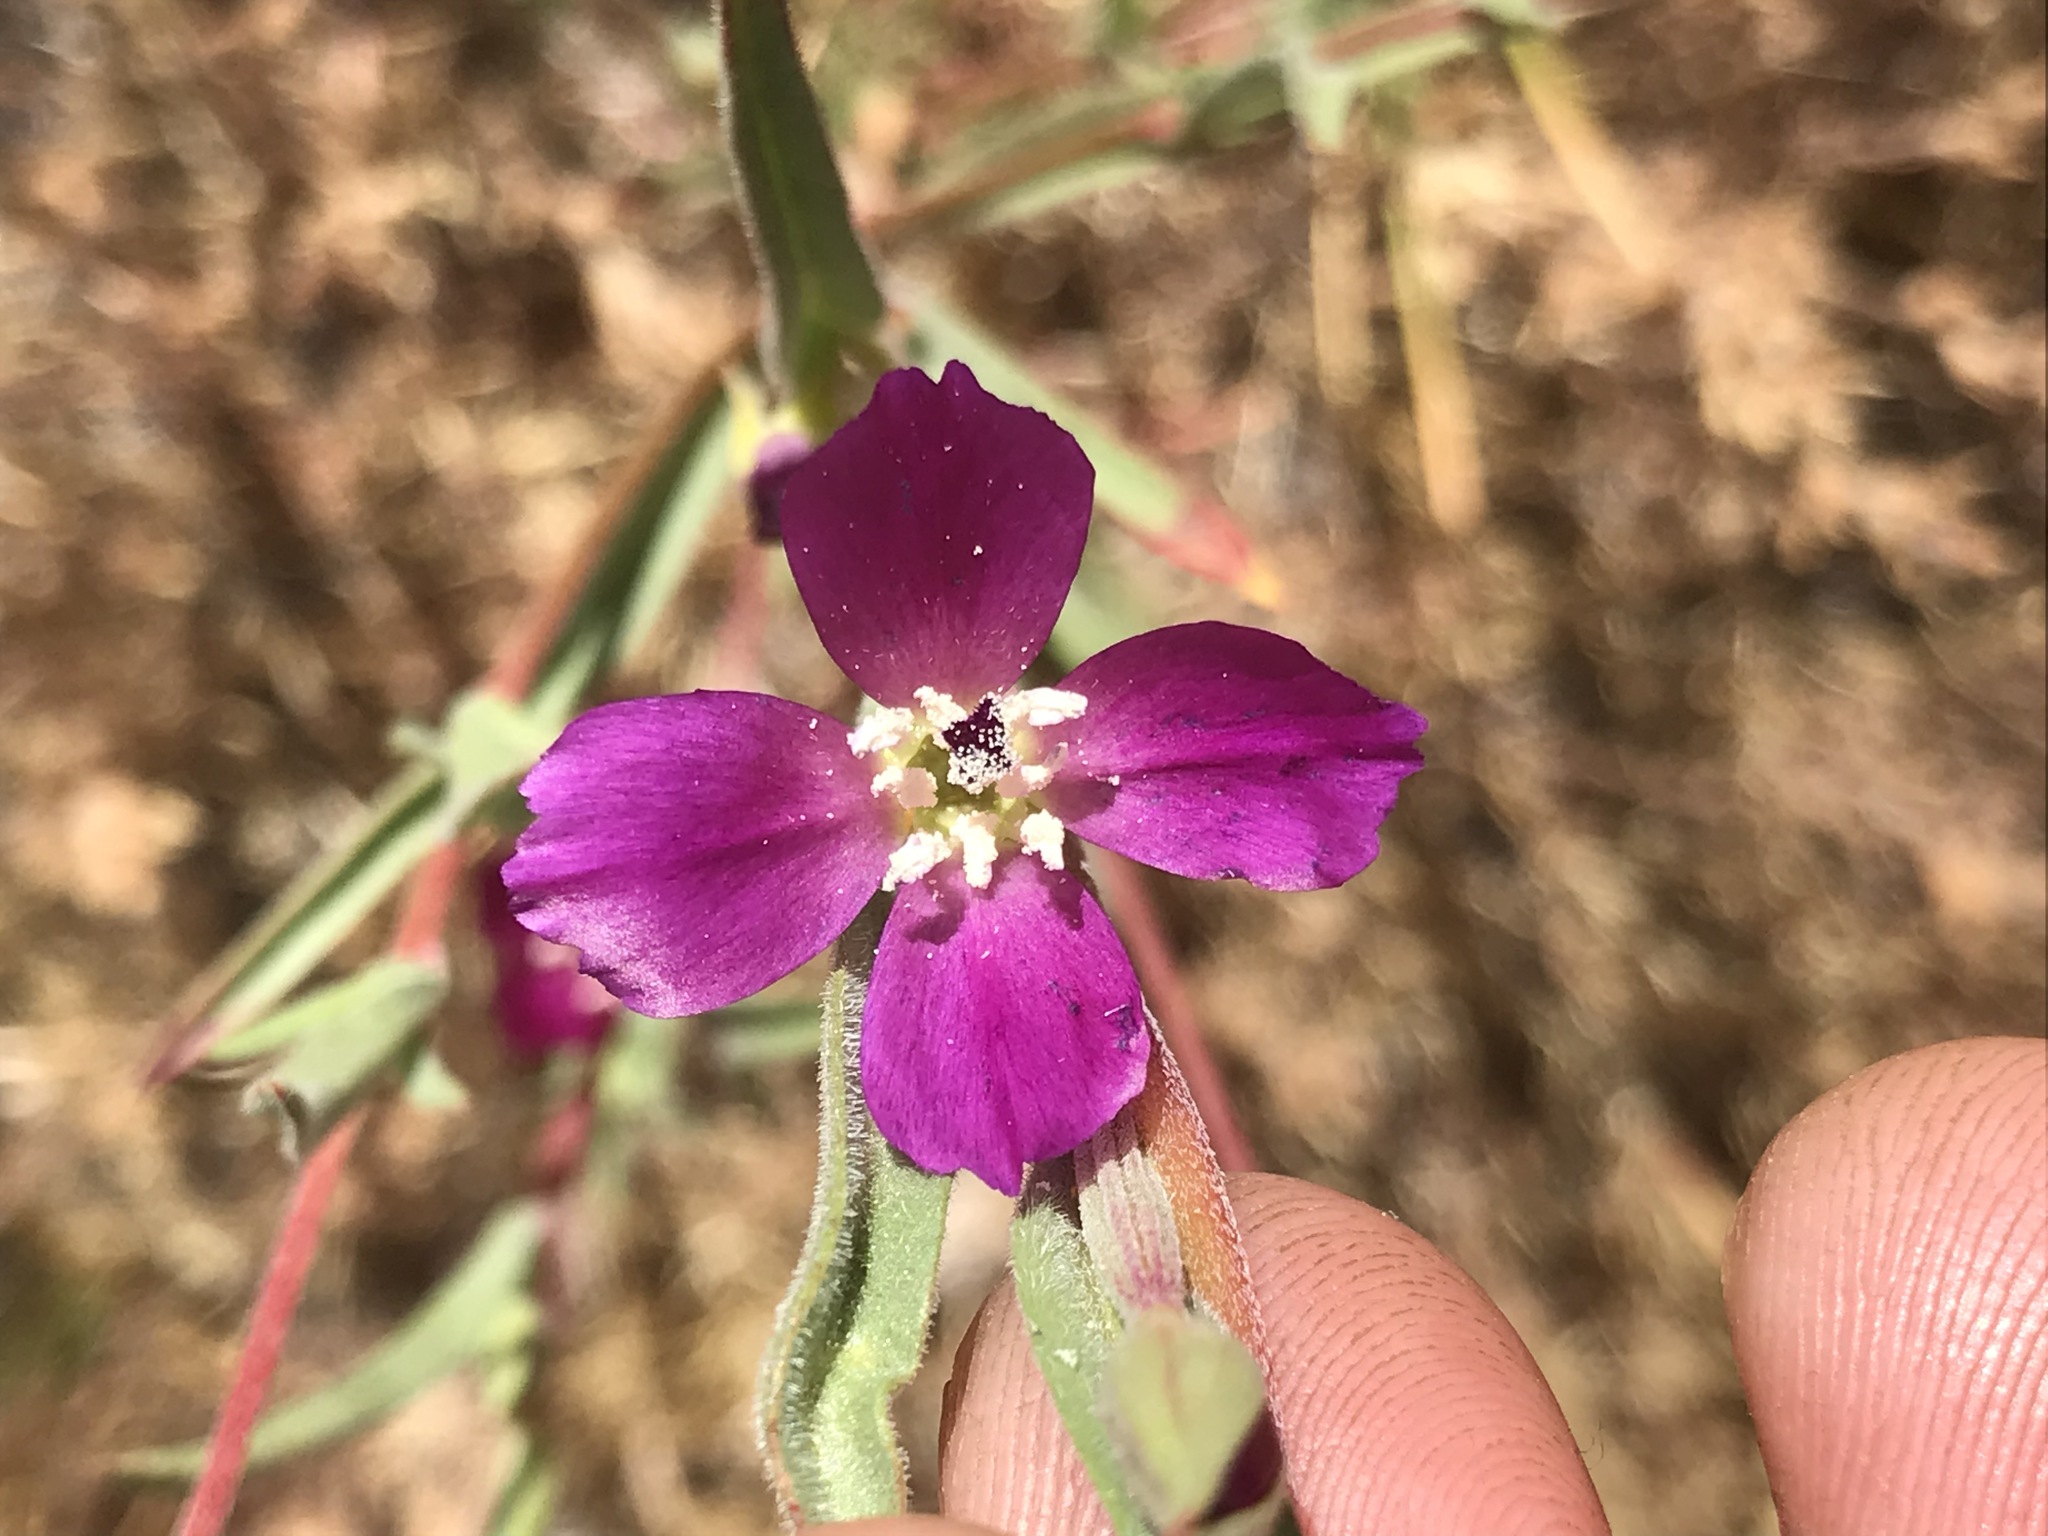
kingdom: Plantae
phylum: Tracheophyta
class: Magnoliopsida
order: Myrtales
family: Onagraceae
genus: Clarkia
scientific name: Clarkia purpurea
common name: Purple clarkia
